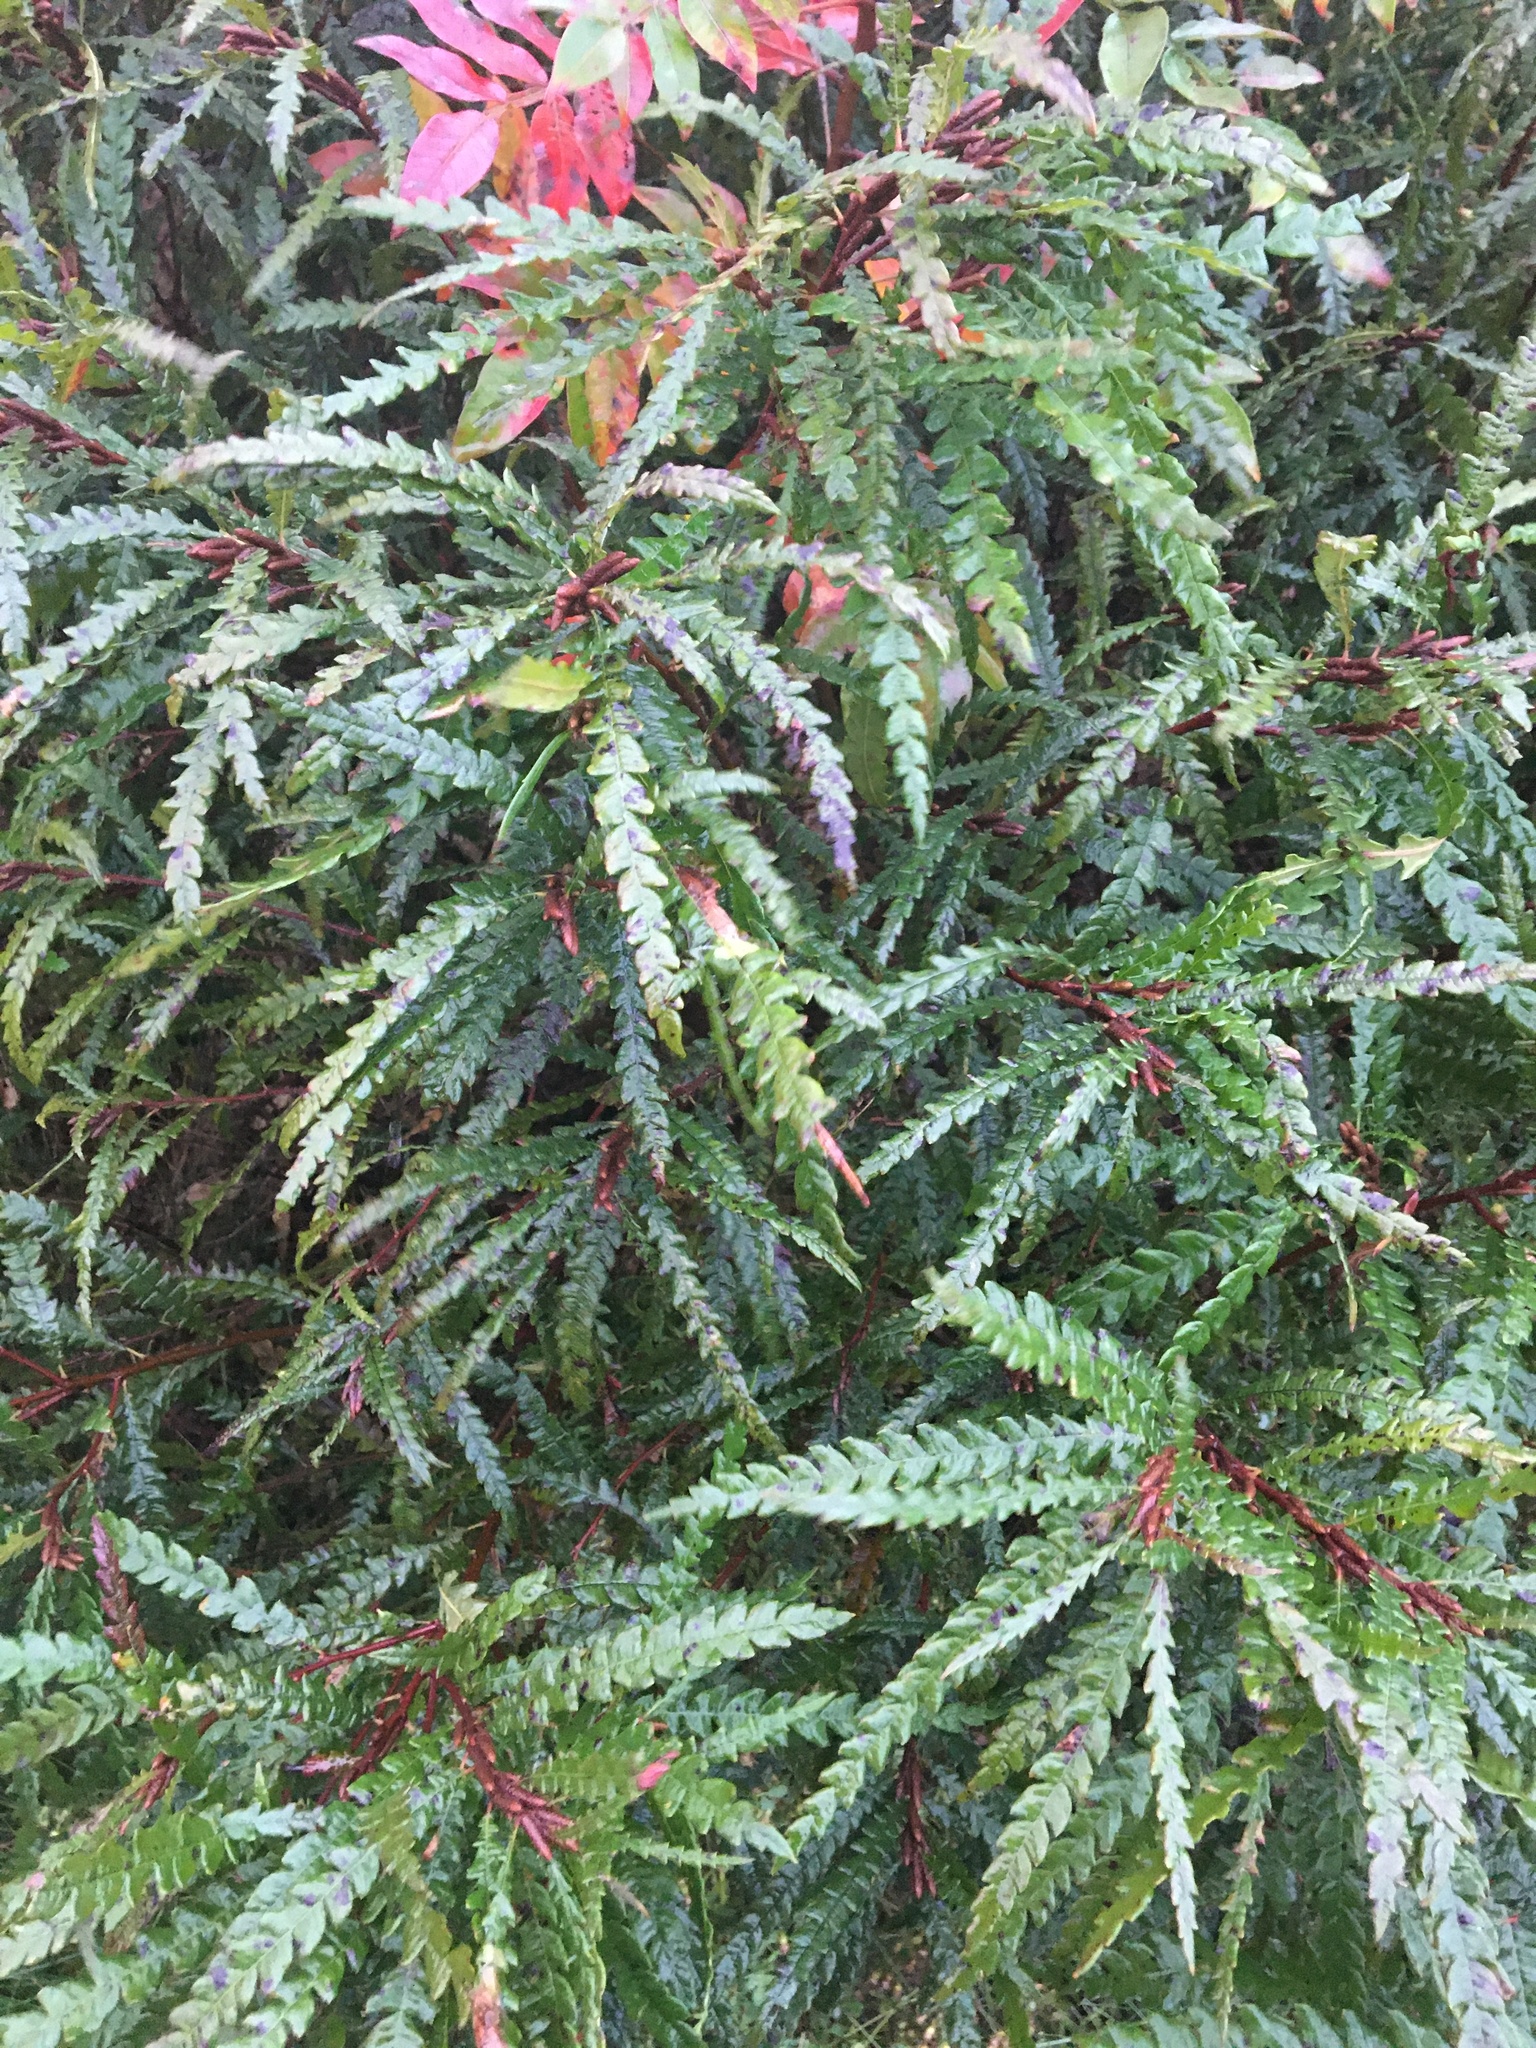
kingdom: Plantae
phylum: Tracheophyta
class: Magnoliopsida
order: Fagales
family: Myricaceae
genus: Comptonia
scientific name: Comptonia peregrina
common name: Sweet-fern
